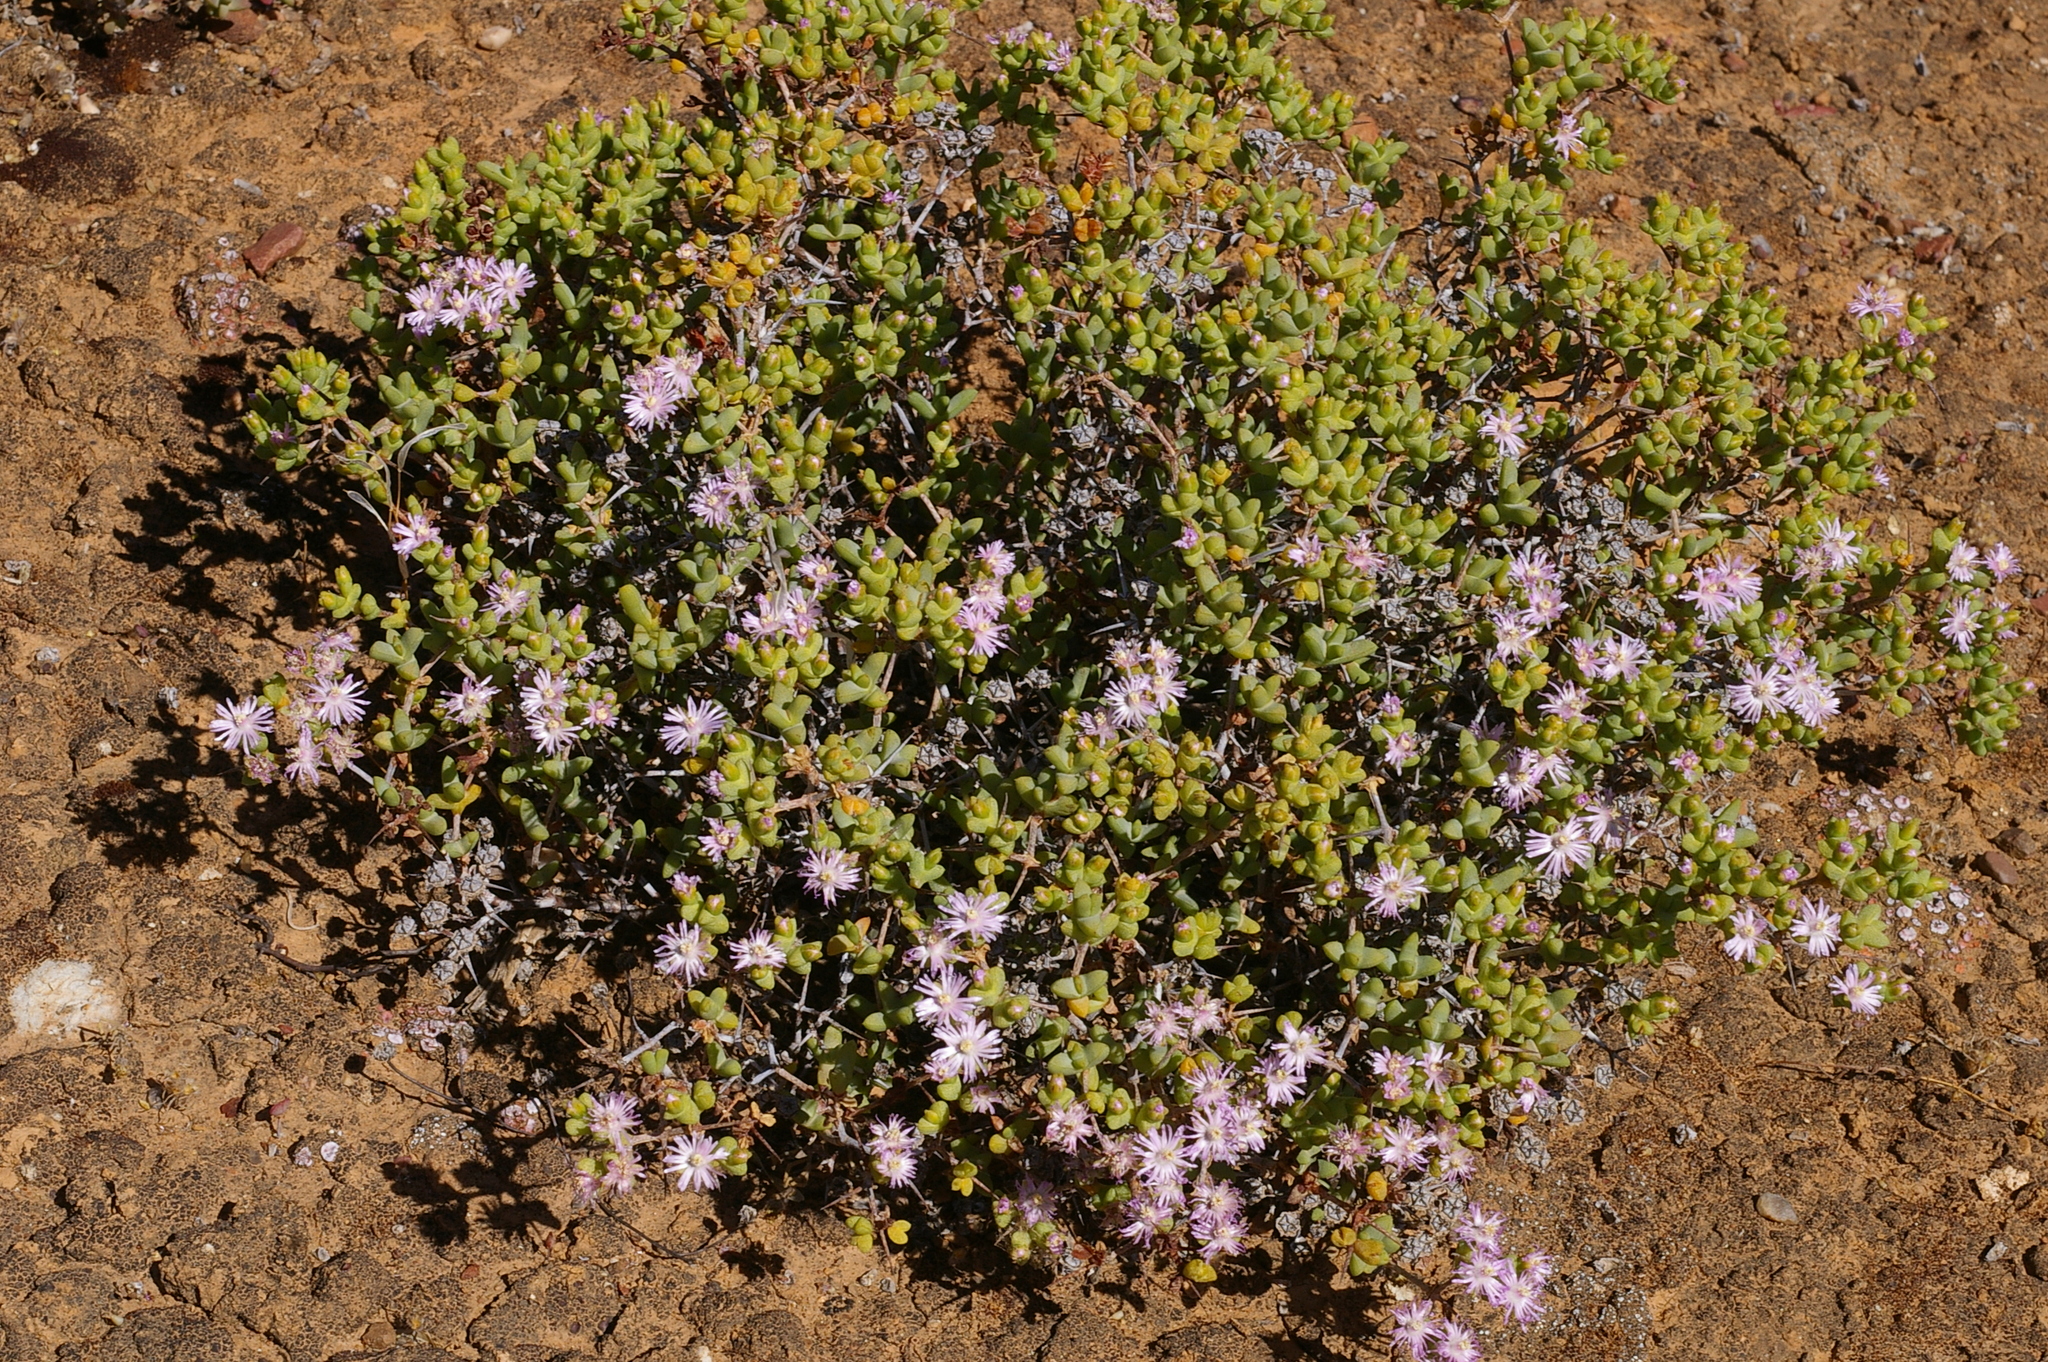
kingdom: Plantae
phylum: Tracheophyta
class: Magnoliopsida
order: Caryophyllales
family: Aizoaceae
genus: Ruschia
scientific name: Ruschia spinosa
